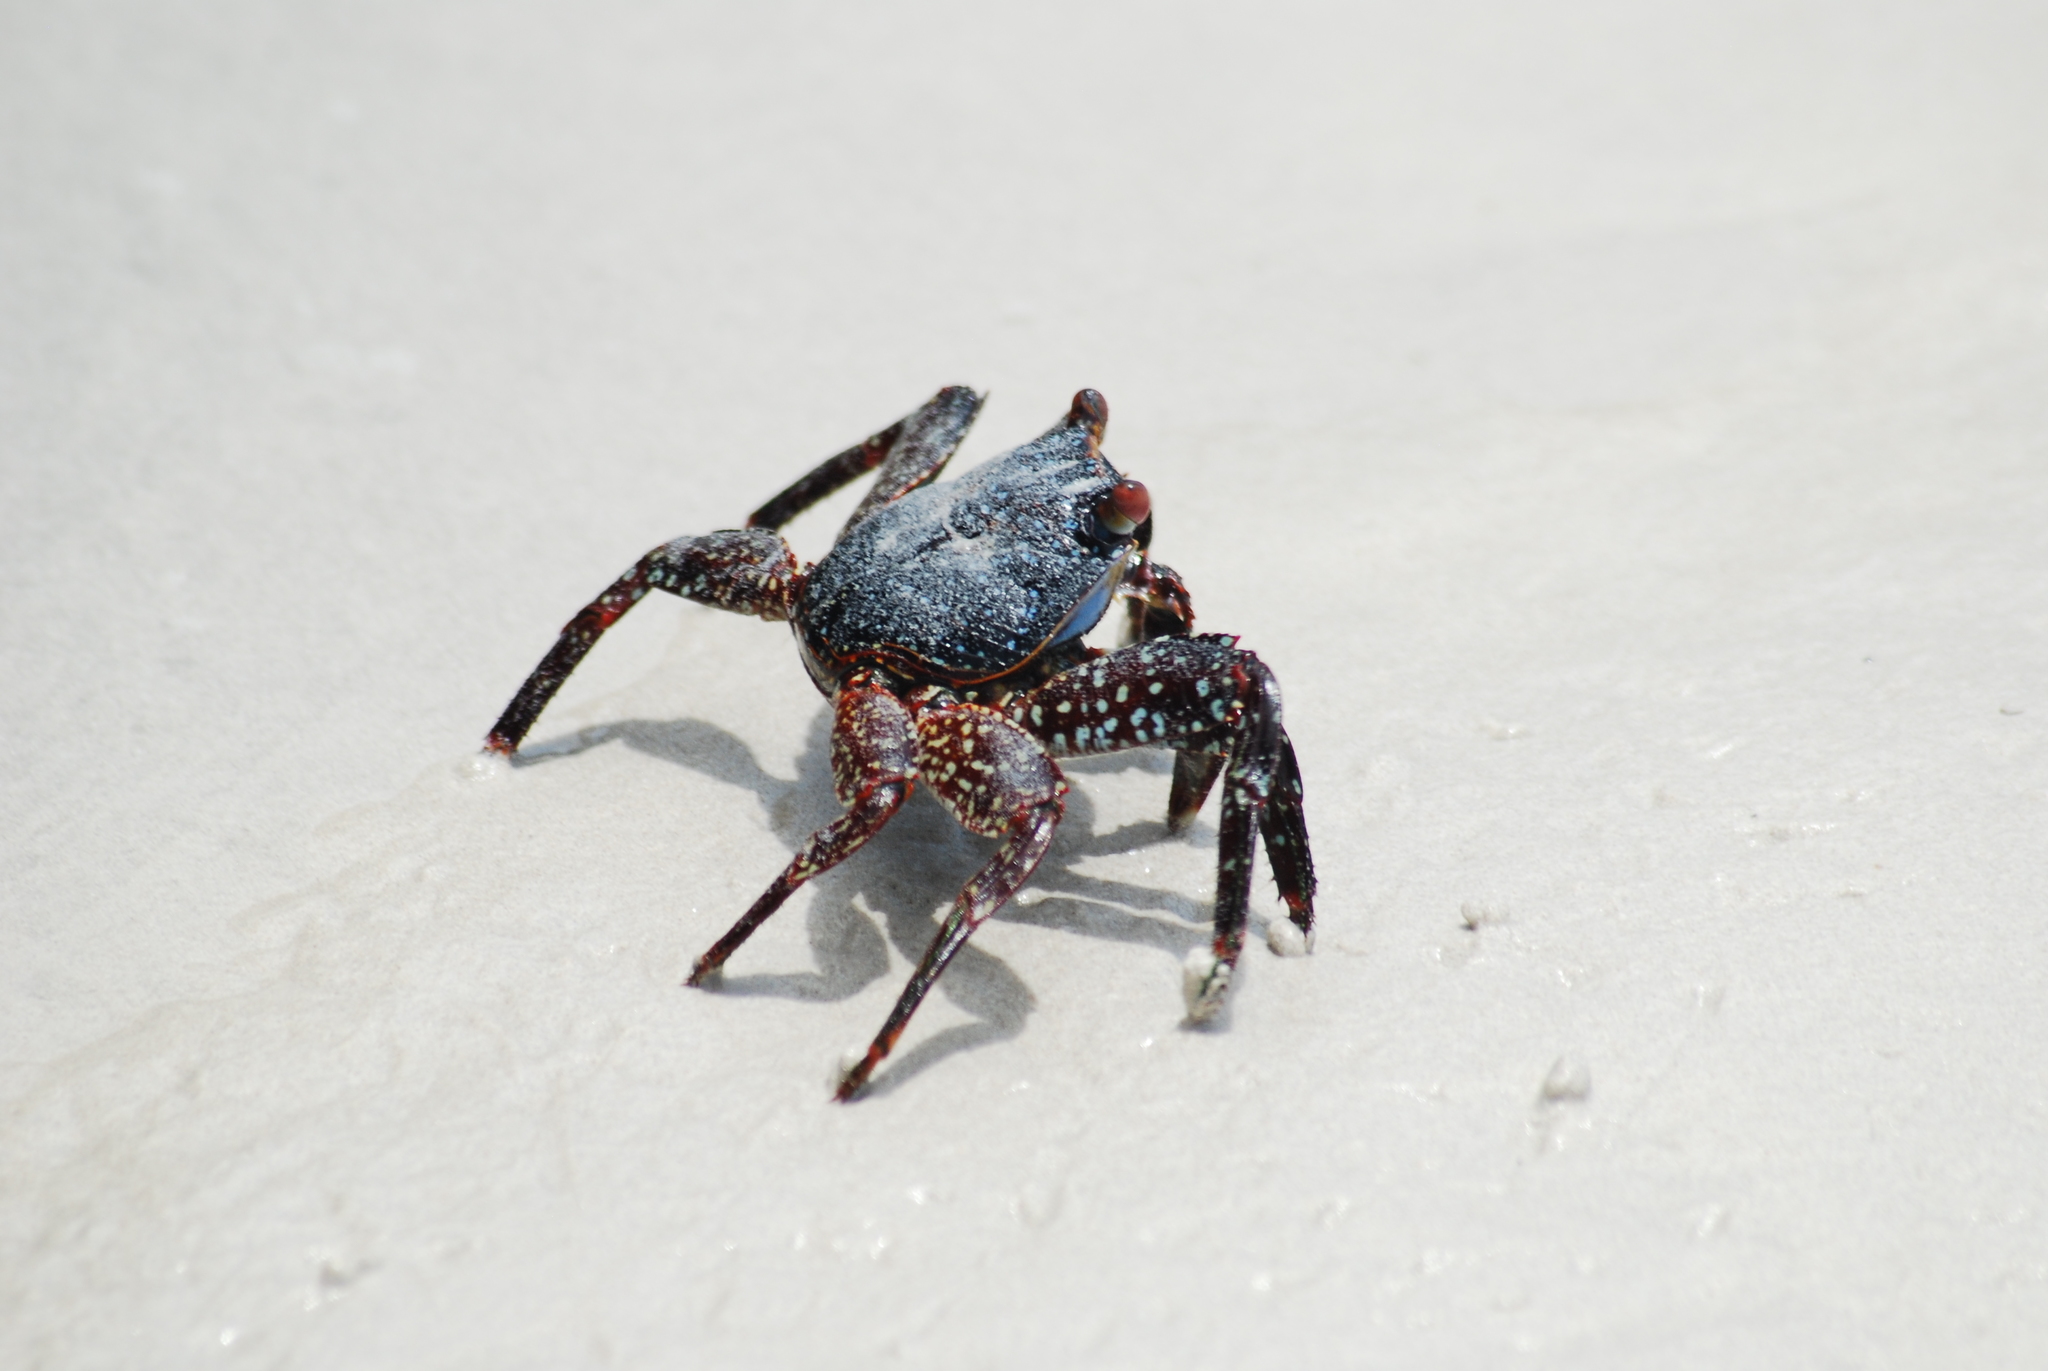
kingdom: Animalia
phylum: Arthropoda
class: Malacostraca
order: Decapoda
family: Grapsidae
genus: Grapsus
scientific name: Grapsus grapsus
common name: Sally lightfoot
